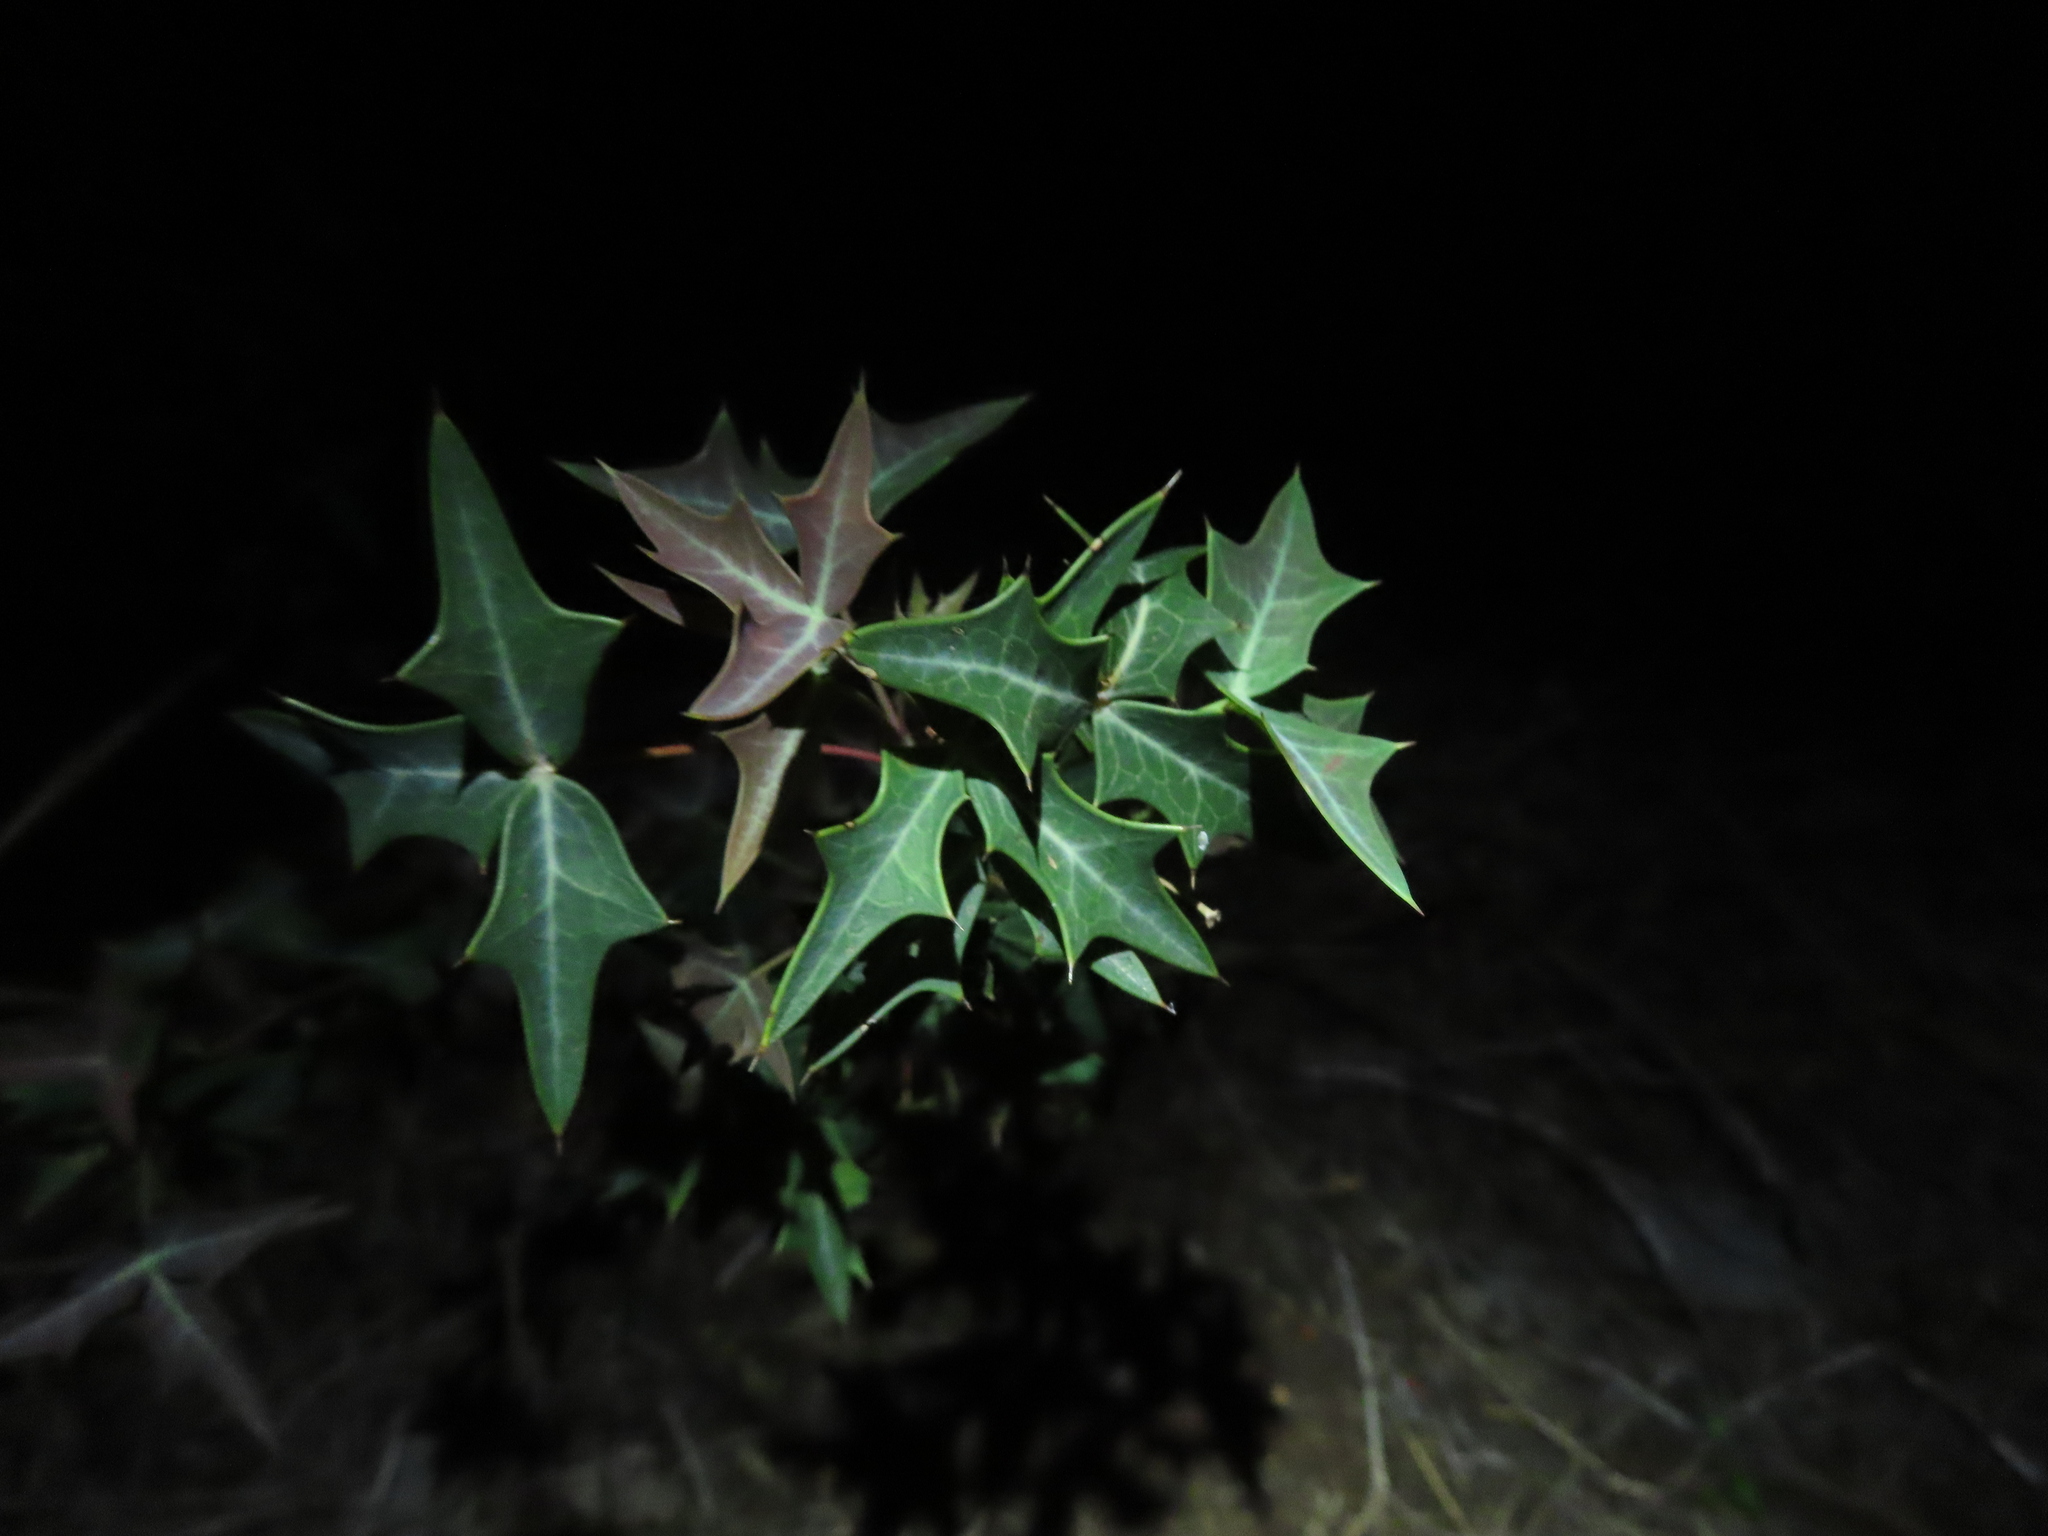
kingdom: Plantae
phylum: Tracheophyta
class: Magnoliopsida
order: Ranunculales
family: Berberidaceae
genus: Alloberberis
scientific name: Alloberberis trifoliolata
